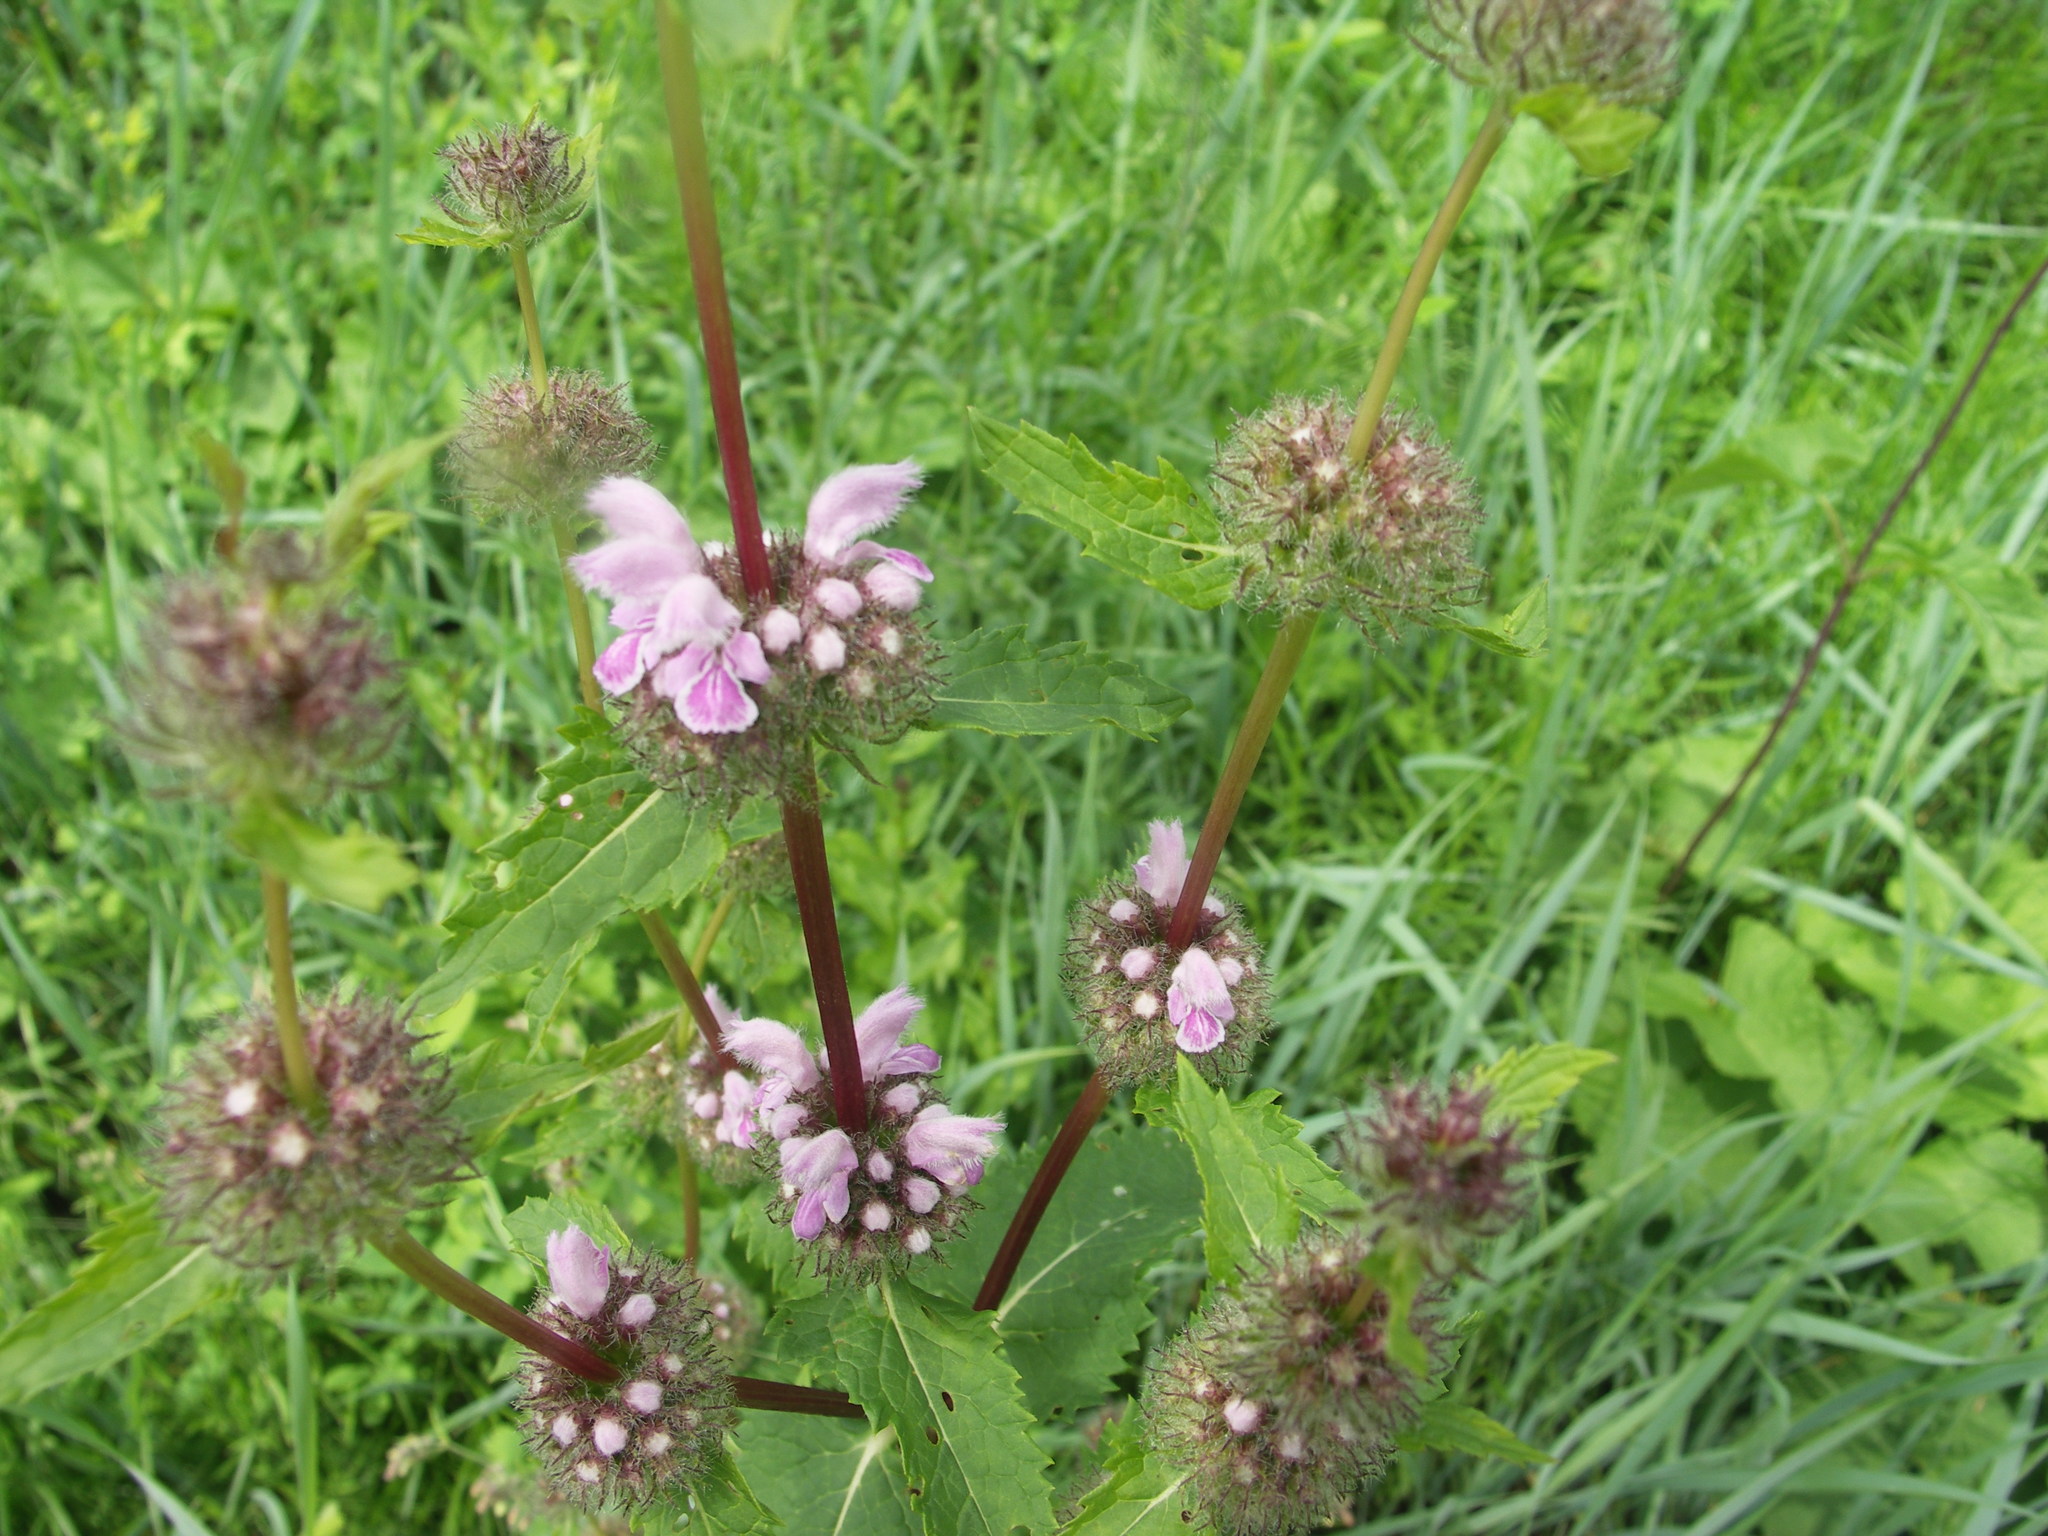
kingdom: Plantae
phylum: Tracheophyta
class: Magnoliopsida
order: Lamiales
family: Lamiaceae
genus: Phlomoides
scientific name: Phlomoides tuberosa
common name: Tuberous jerusalem sage
